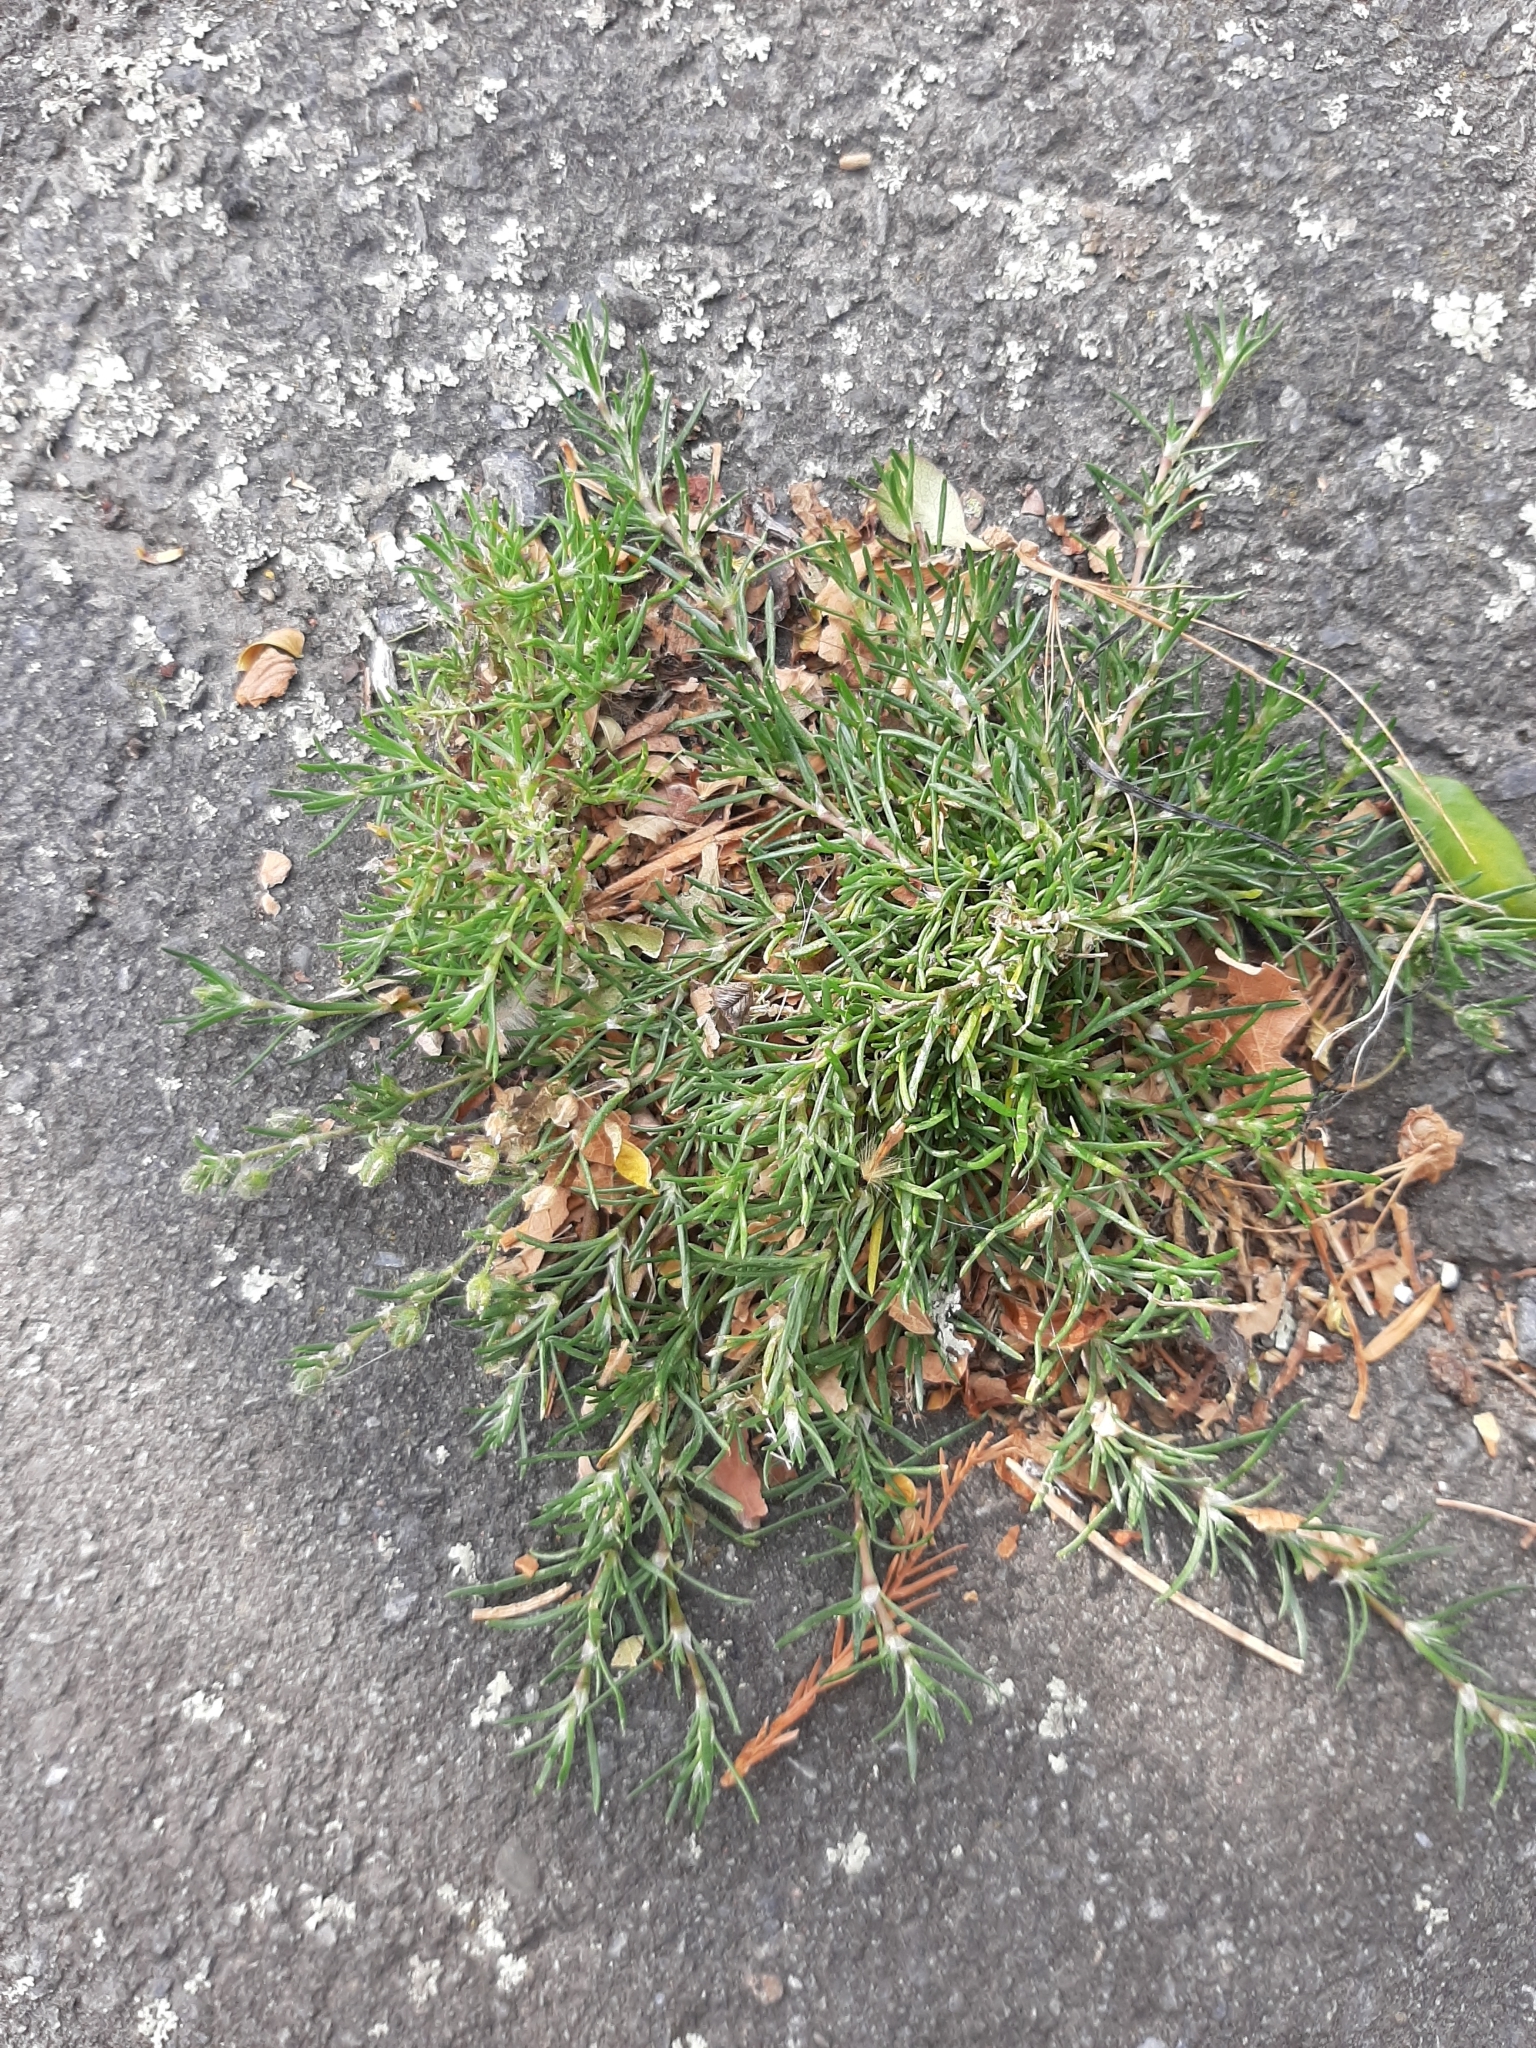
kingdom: Plantae
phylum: Tracheophyta
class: Magnoliopsida
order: Caryophyllales
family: Caryophyllaceae
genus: Spergularia
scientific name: Spergularia rubra
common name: Red sand-spurrey
